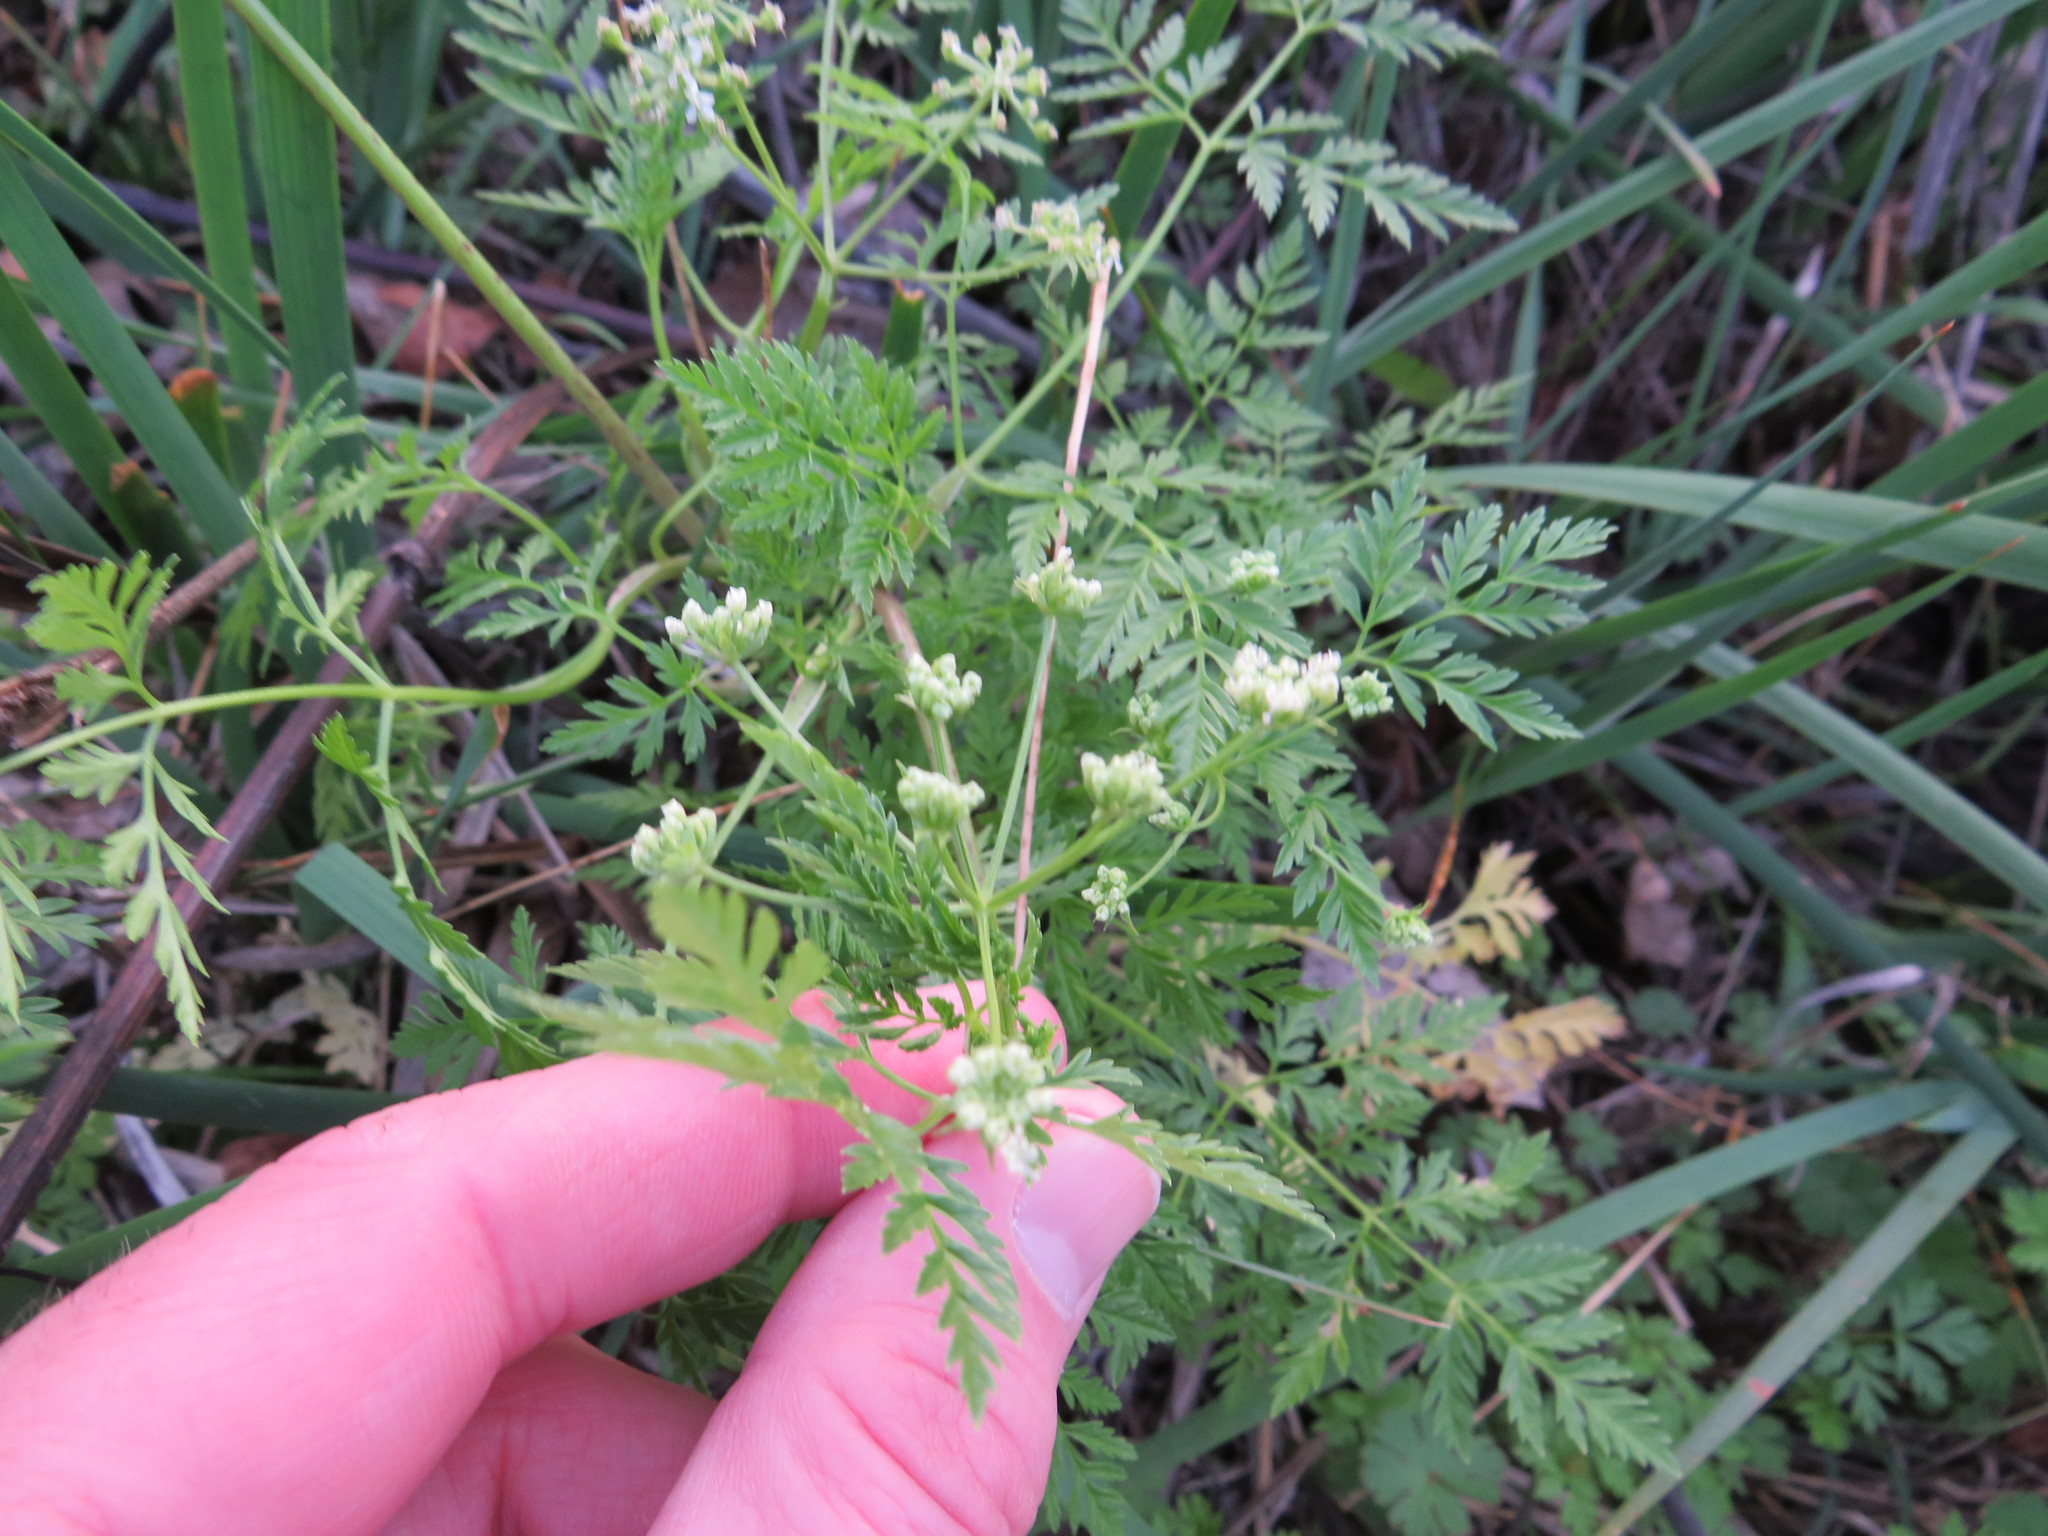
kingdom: Plantae
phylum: Tracheophyta
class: Magnoliopsida
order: Apiales
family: Apiaceae
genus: Conium
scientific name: Conium maculatum
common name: Hemlock
